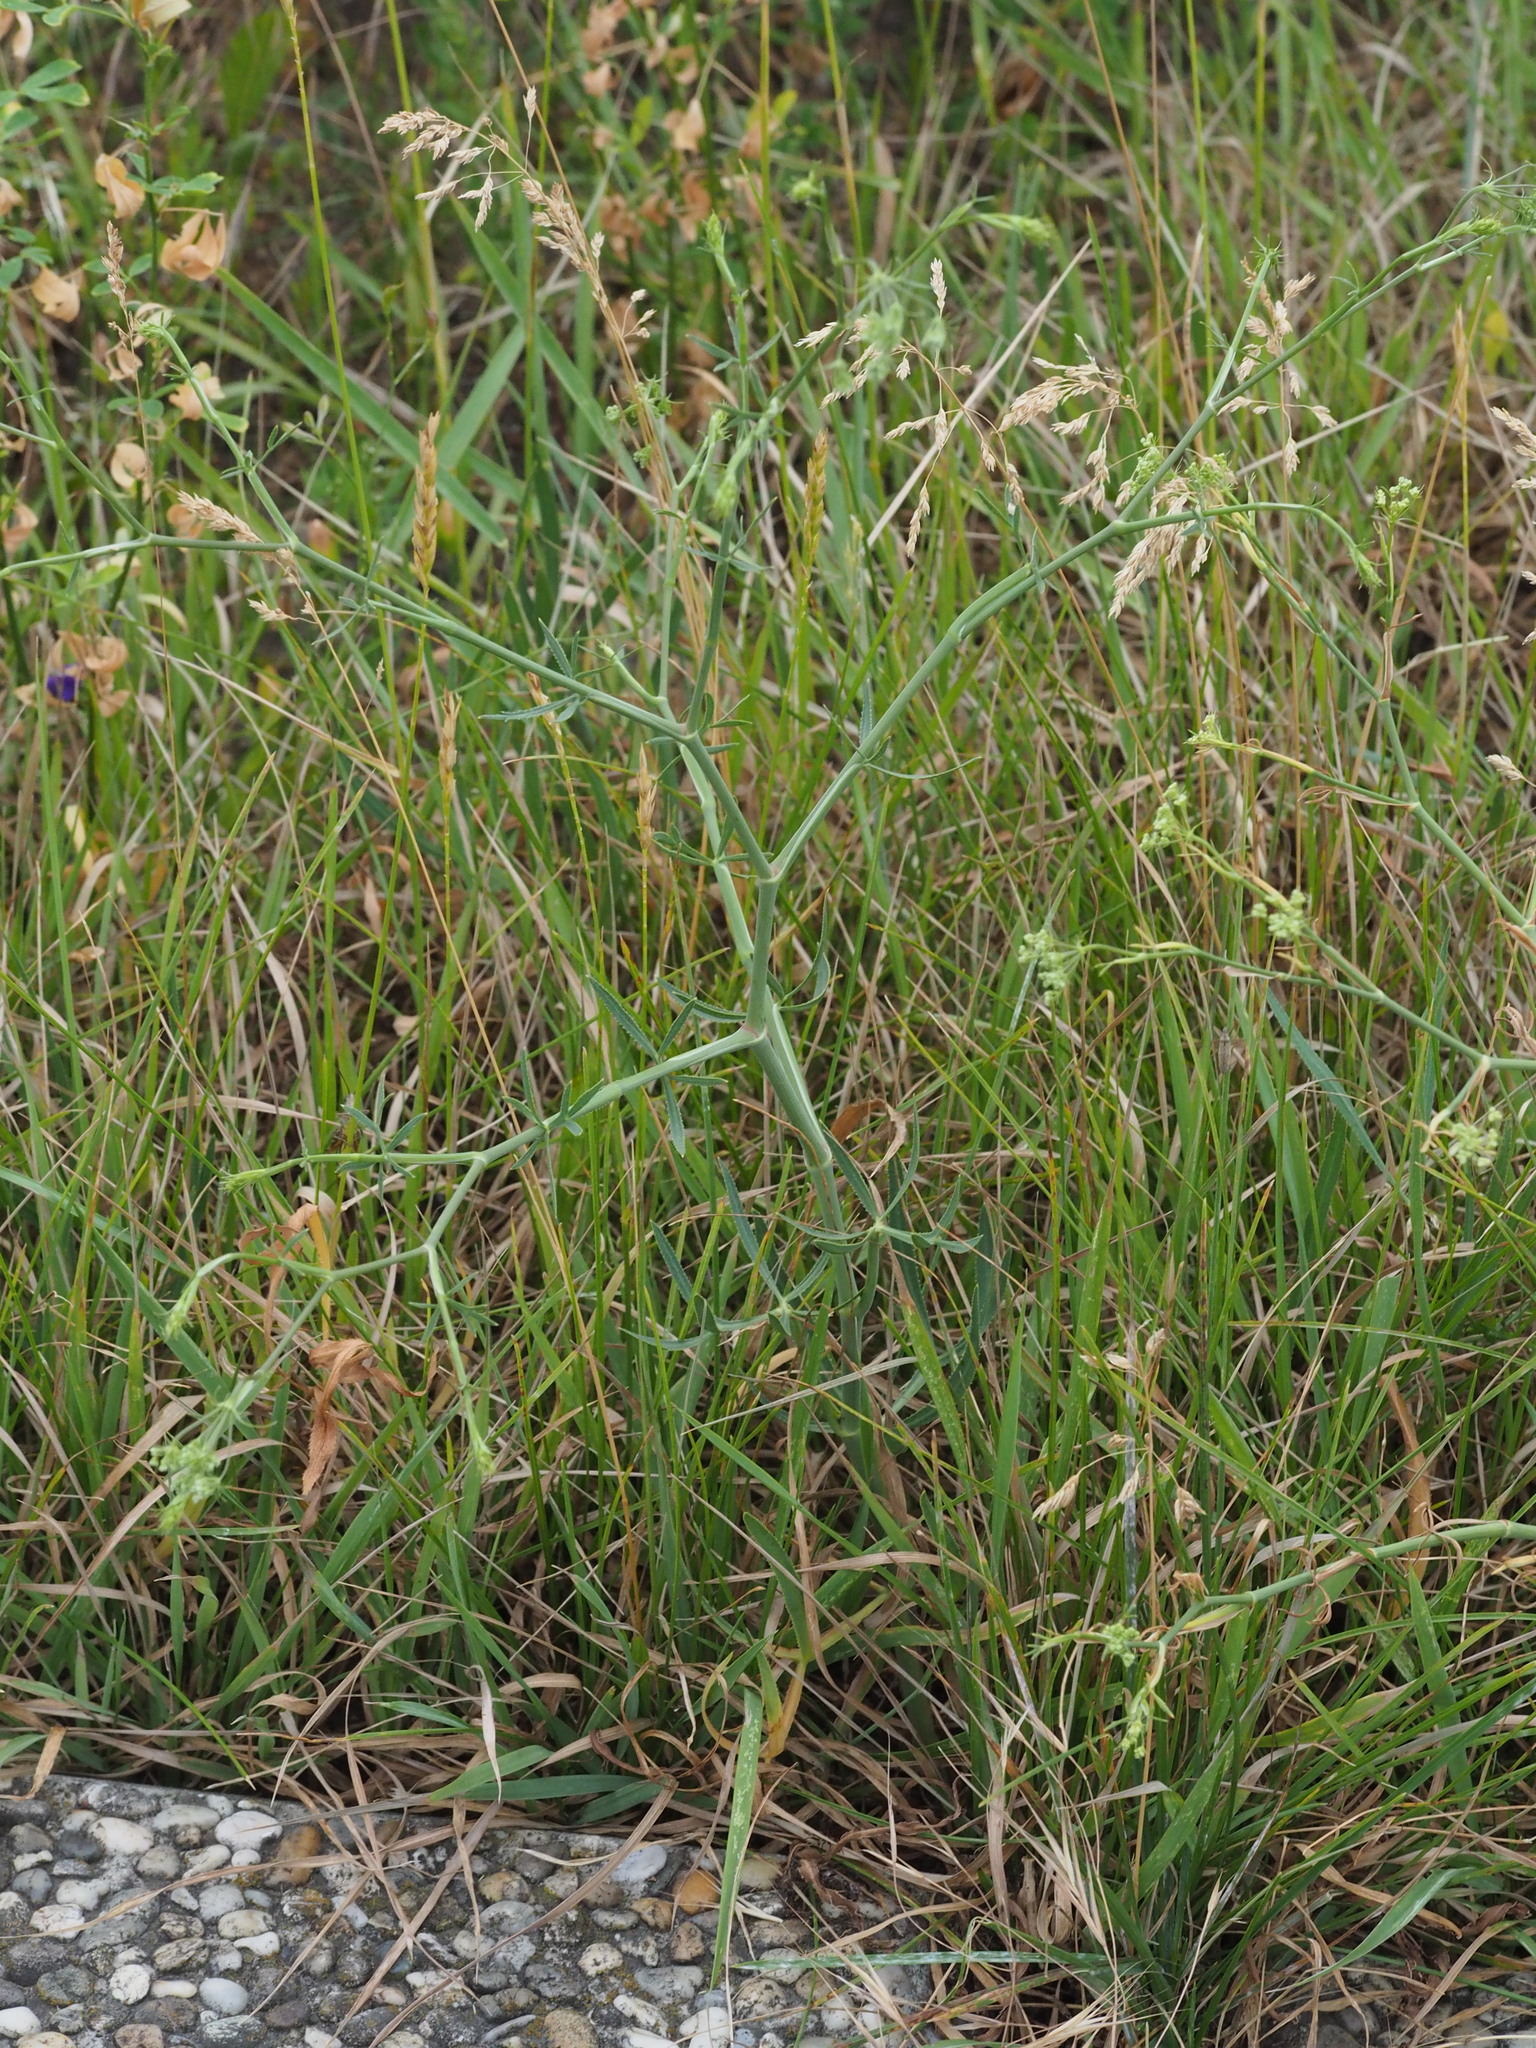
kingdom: Plantae
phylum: Tracheophyta
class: Magnoliopsida
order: Apiales
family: Apiaceae
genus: Falcaria
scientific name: Falcaria vulgaris
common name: Longleaf
